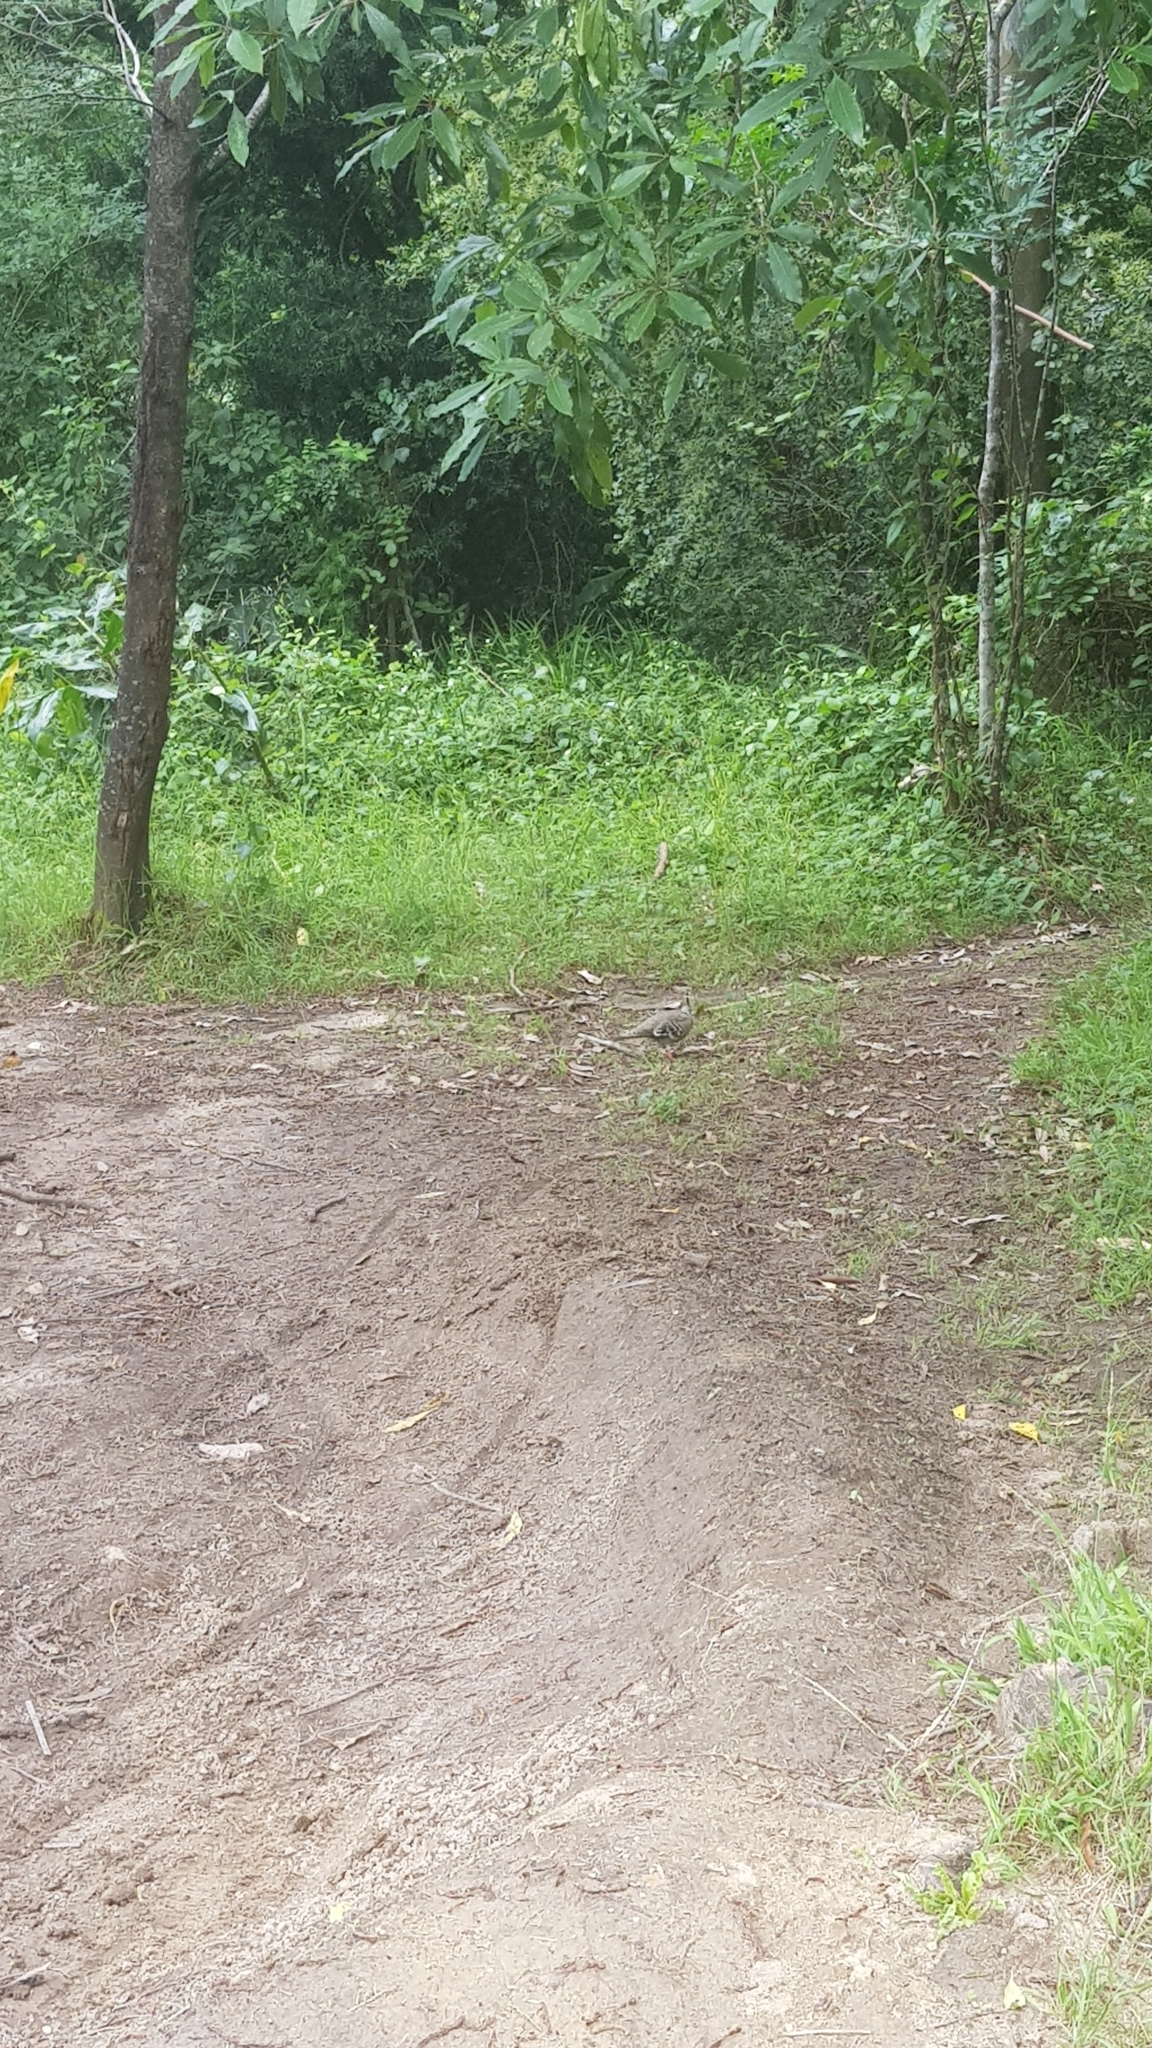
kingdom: Animalia
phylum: Chordata
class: Aves
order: Columbiformes
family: Columbidae
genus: Ocyphaps
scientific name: Ocyphaps lophotes
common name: Crested pigeon
